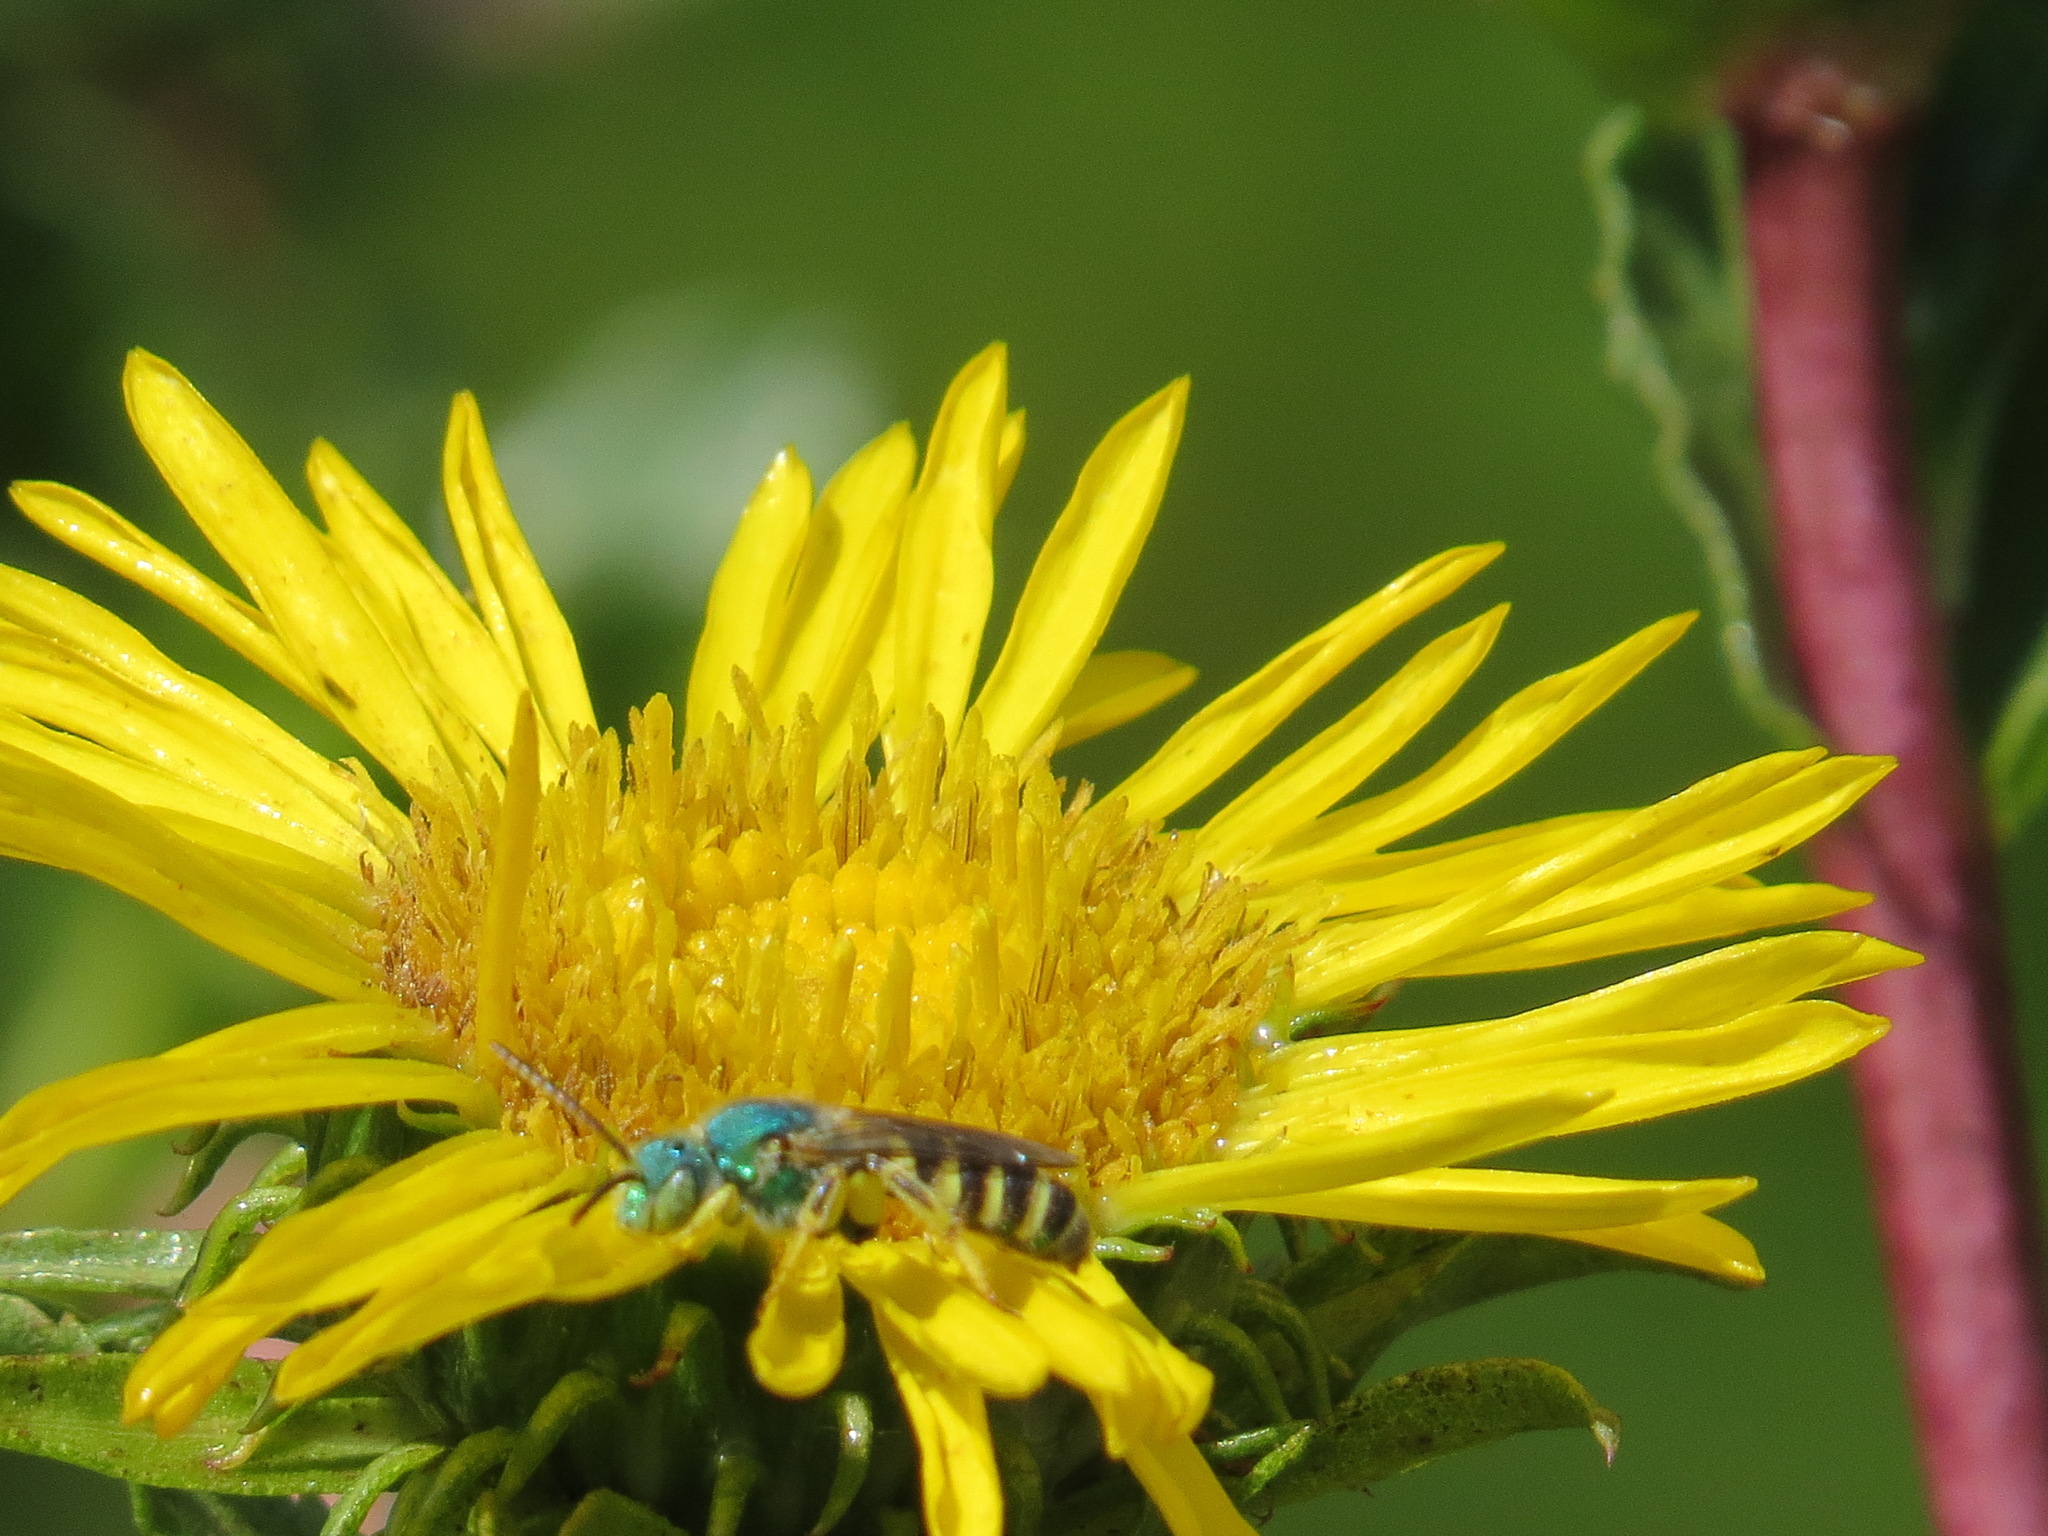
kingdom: Animalia
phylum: Arthropoda
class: Insecta
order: Hymenoptera
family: Halictidae
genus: Agapostemon
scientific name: Agapostemon texanus
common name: Texas striped sweat bee
